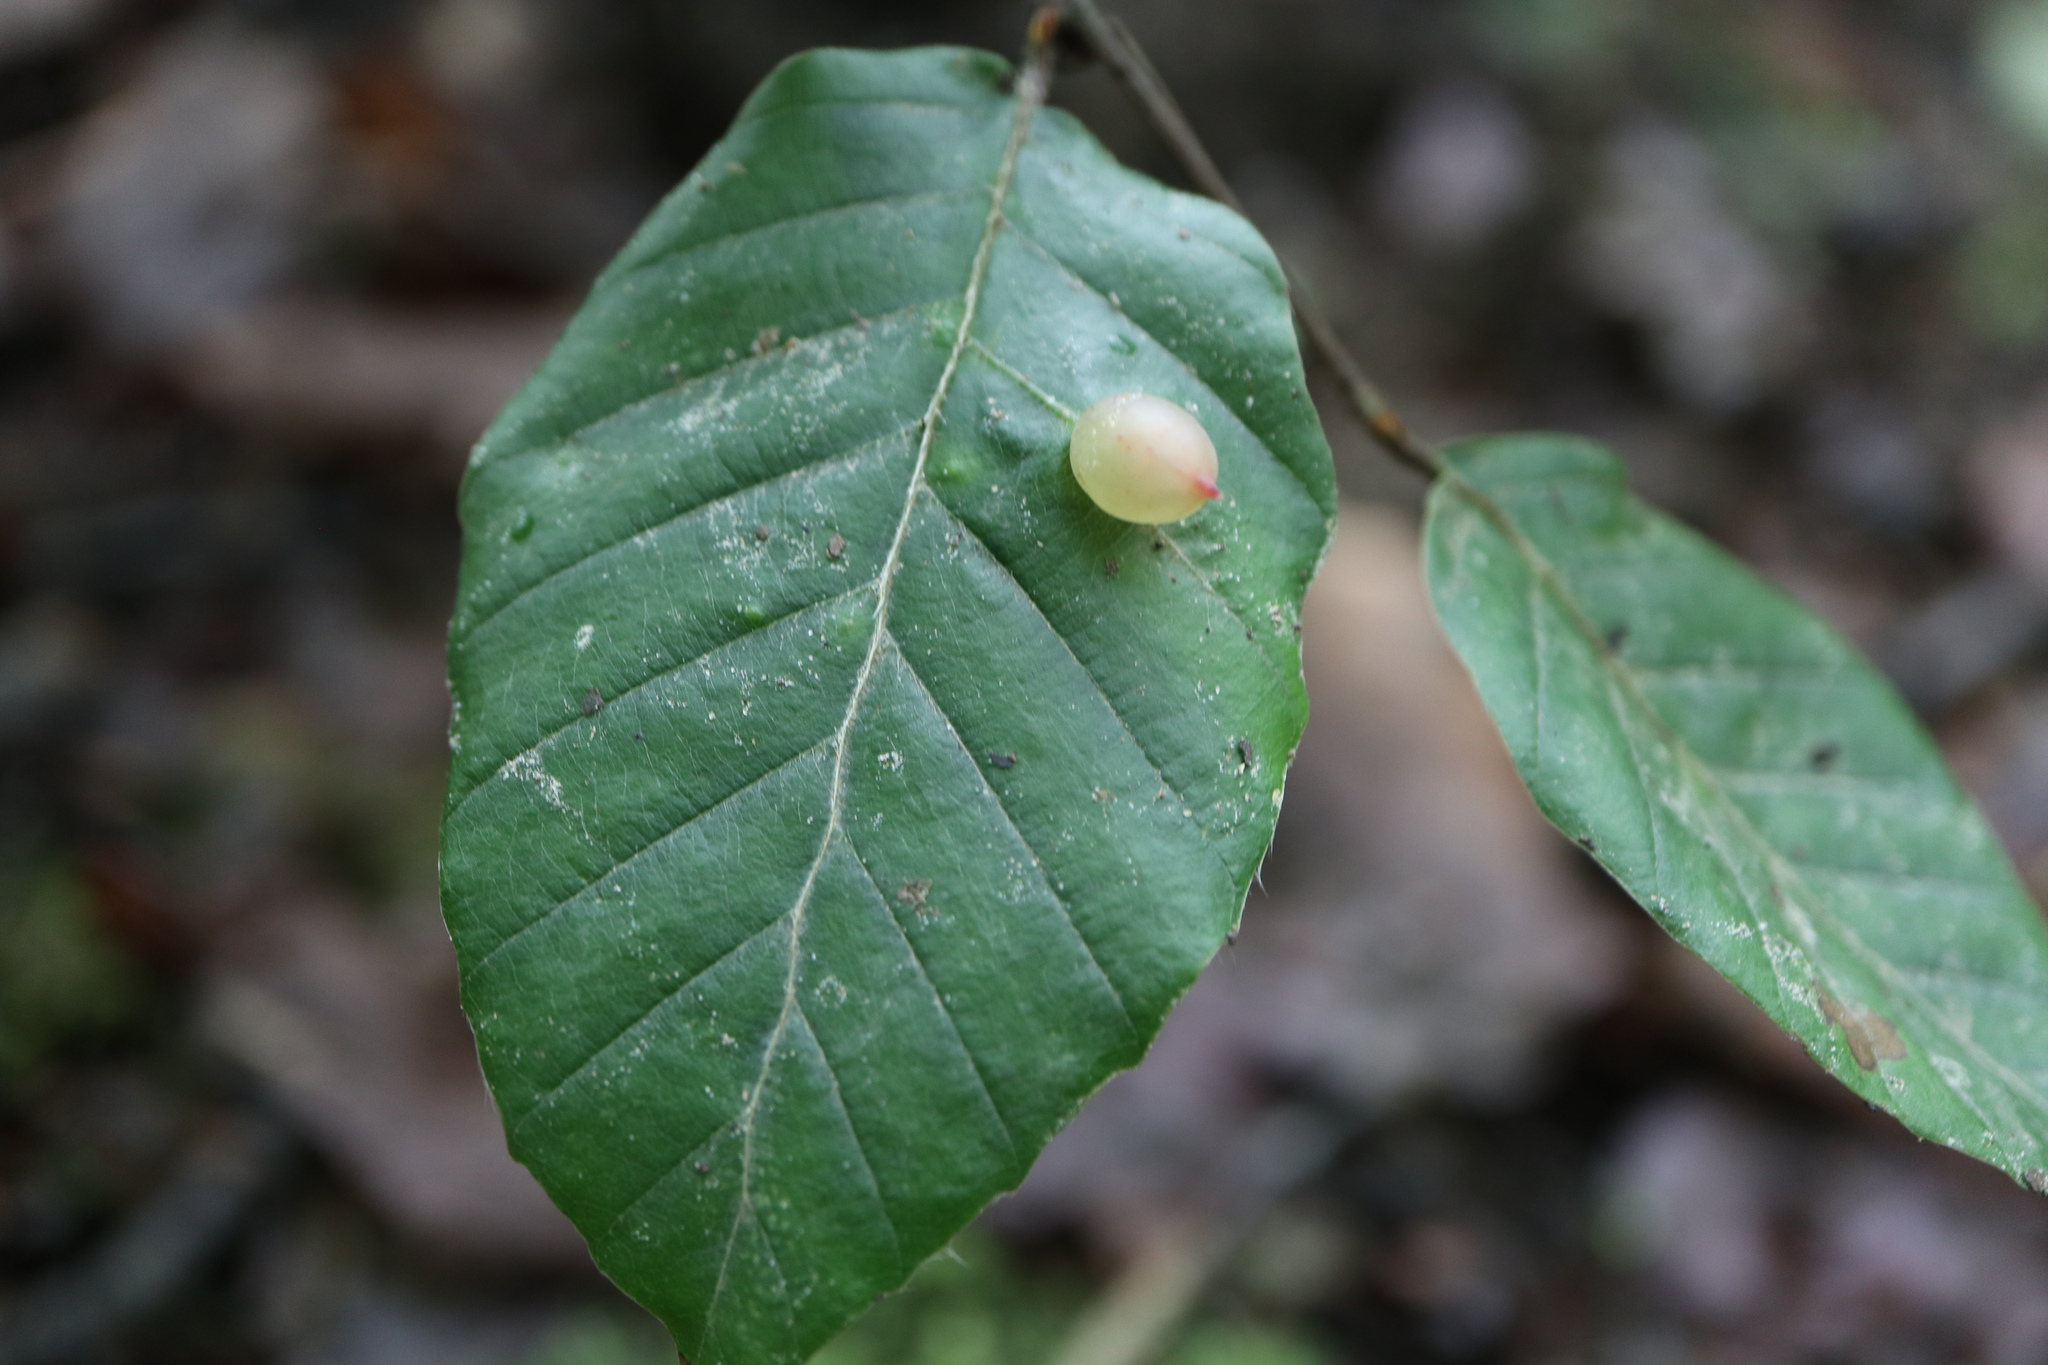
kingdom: Animalia
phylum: Arthropoda
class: Insecta
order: Diptera
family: Cecidomyiidae
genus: Mikiola
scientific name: Mikiola fagi
